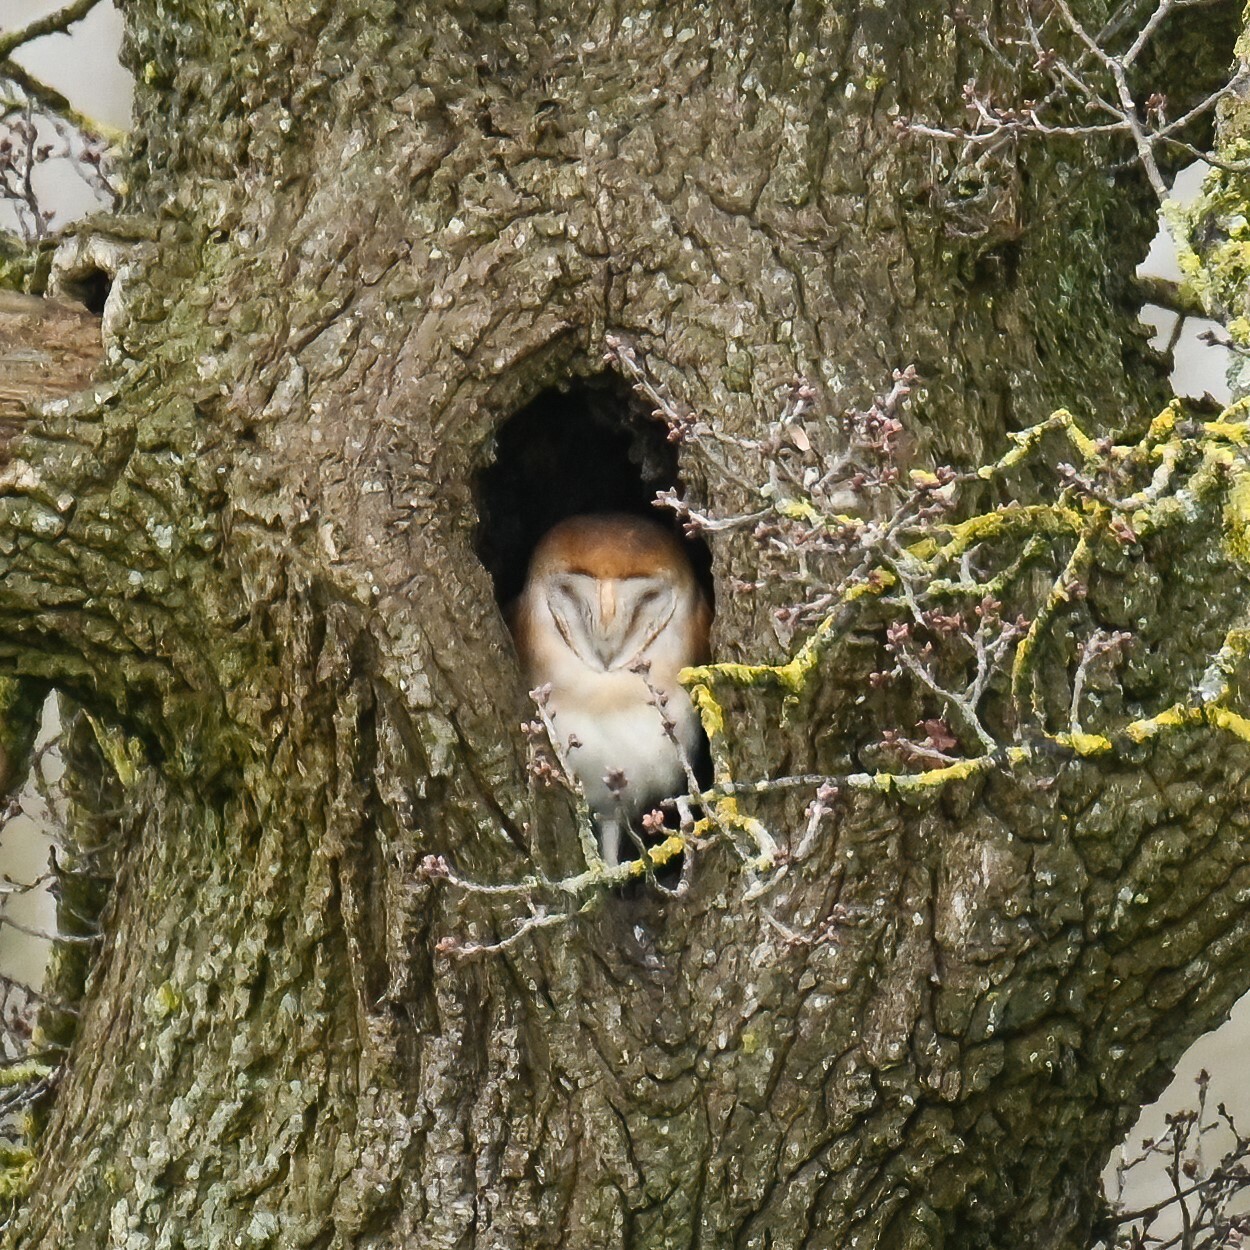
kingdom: Animalia
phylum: Chordata
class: Aves
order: Strigiformes
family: Tytonidae
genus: Tyto
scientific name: Tyto alba
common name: Barn owl
